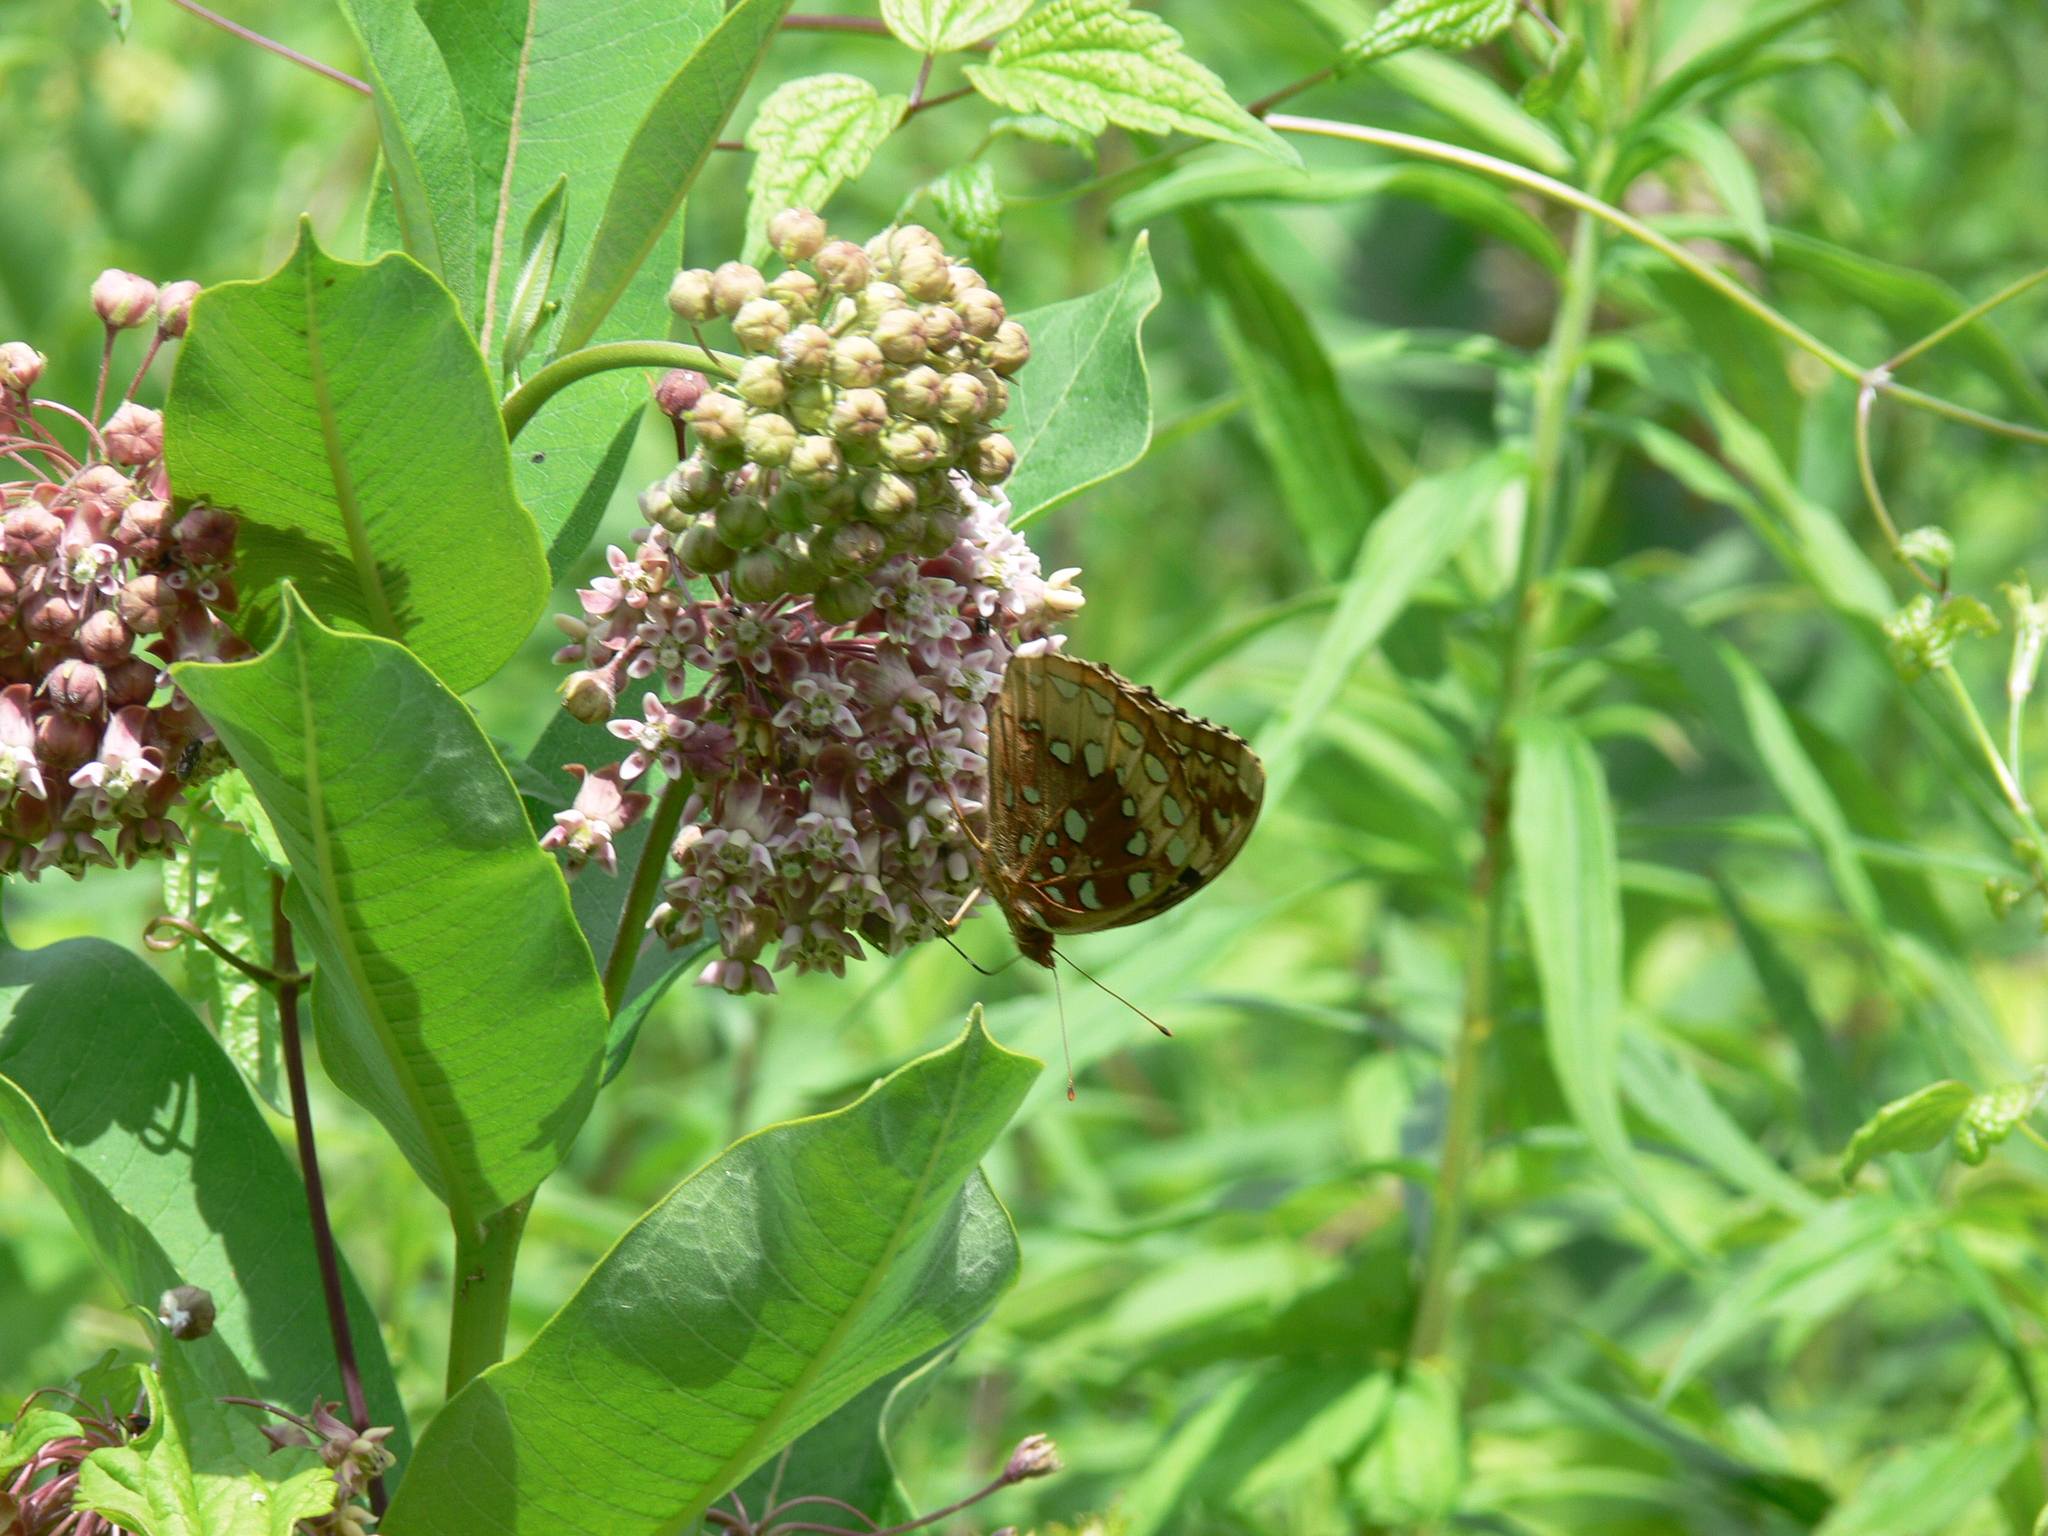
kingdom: Animalia
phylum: Arthropoda
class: Insecta
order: Lepidoptera
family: Nymphalidae
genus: Speyeria
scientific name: Speyeria cybele
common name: Great spangled fritillary
